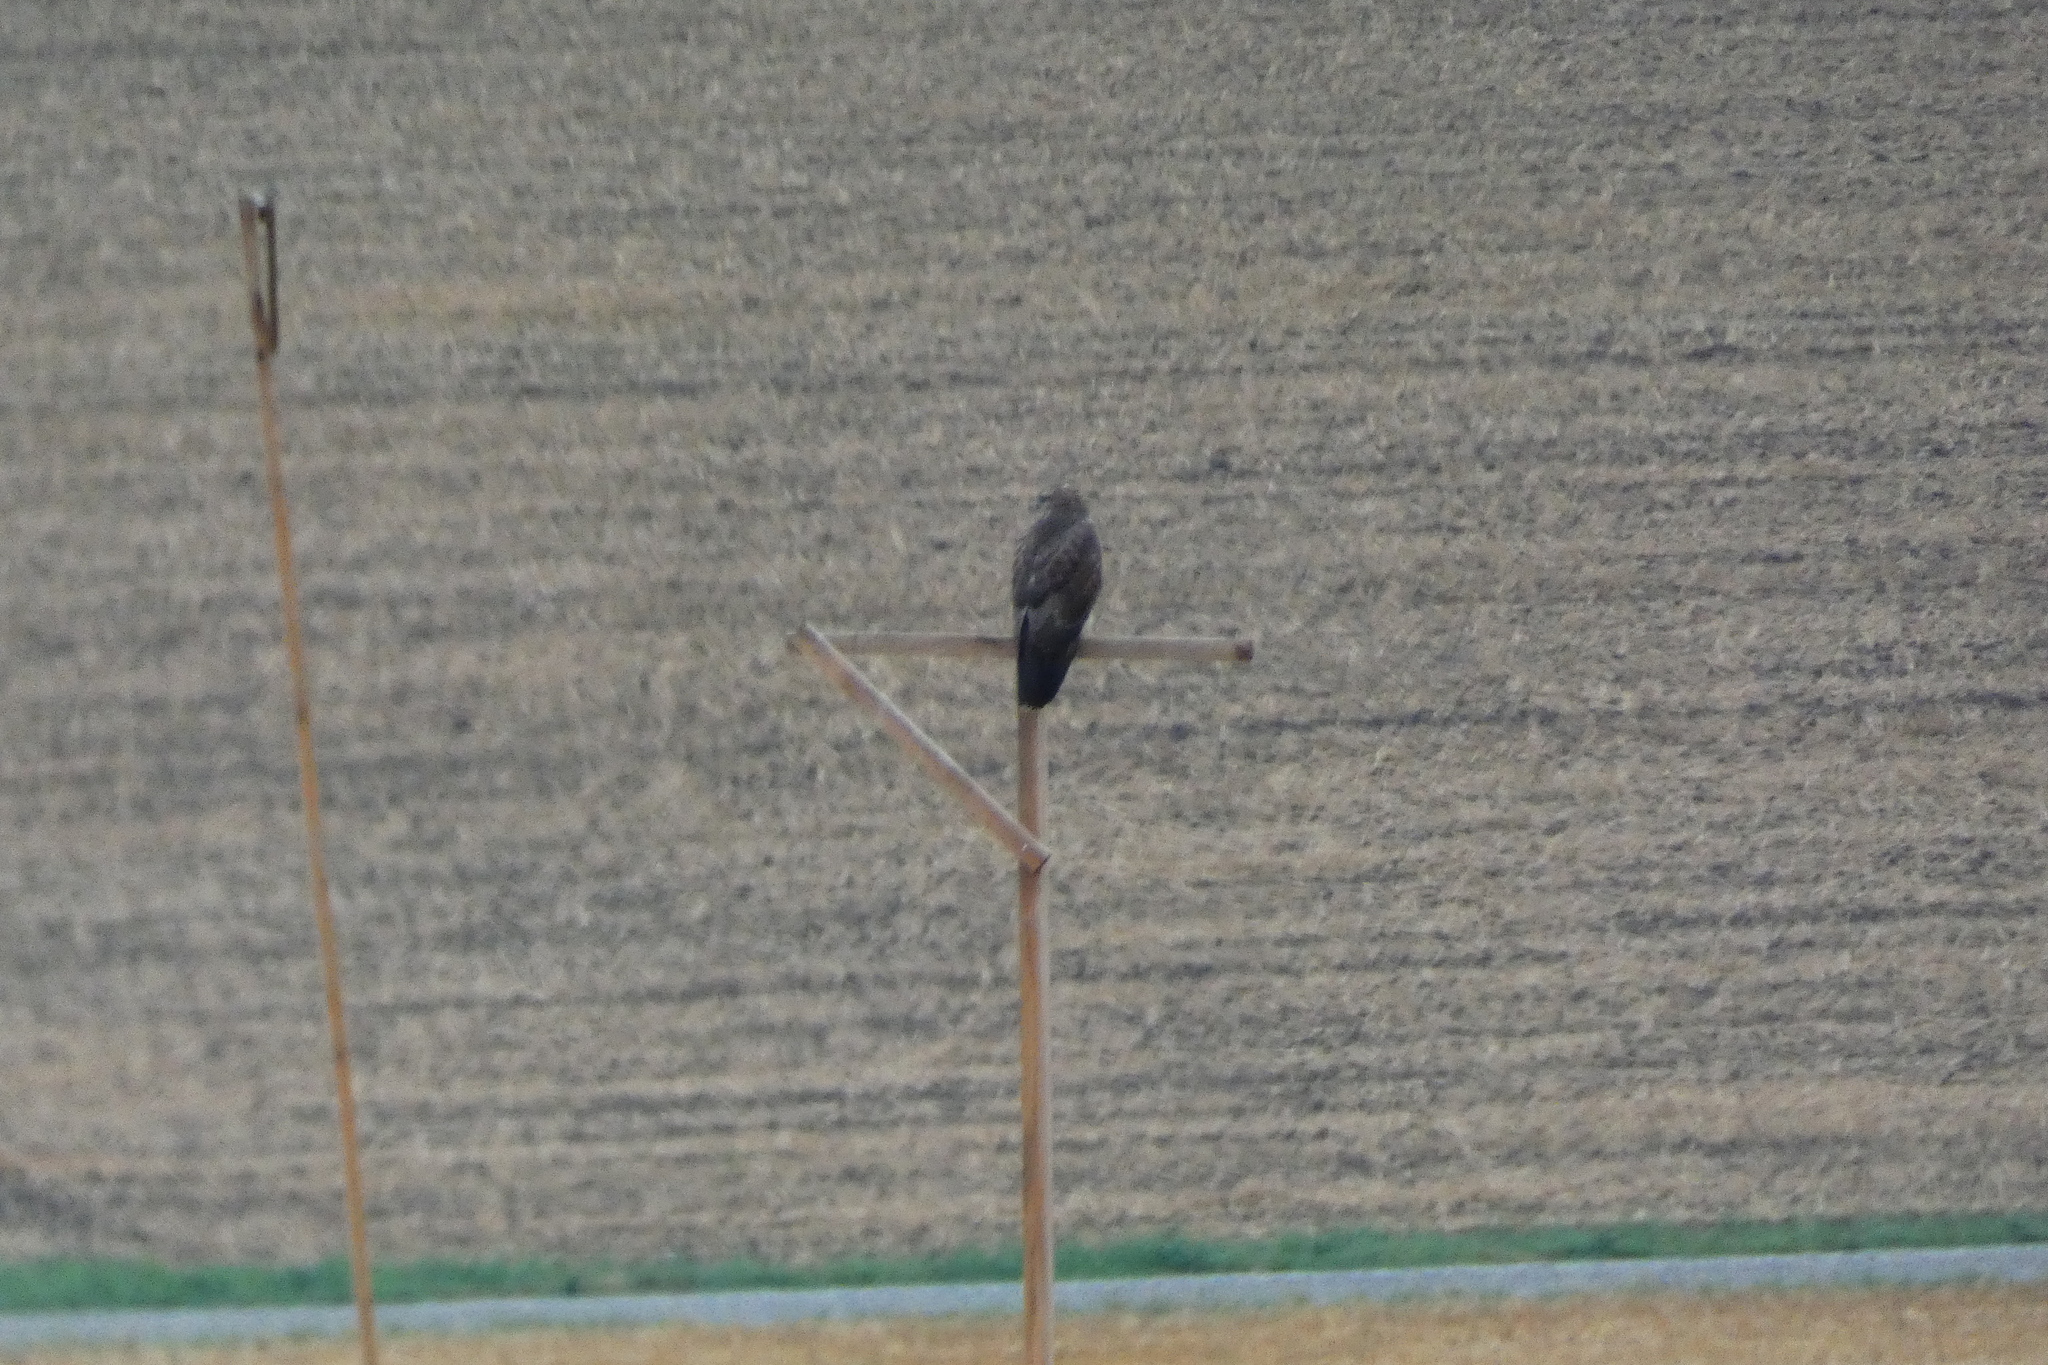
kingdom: Animalia
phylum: Chordata
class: Aves
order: Accipitriformes
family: Accipitridae
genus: Buteo
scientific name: Buteo buteo
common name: Common buzzard
